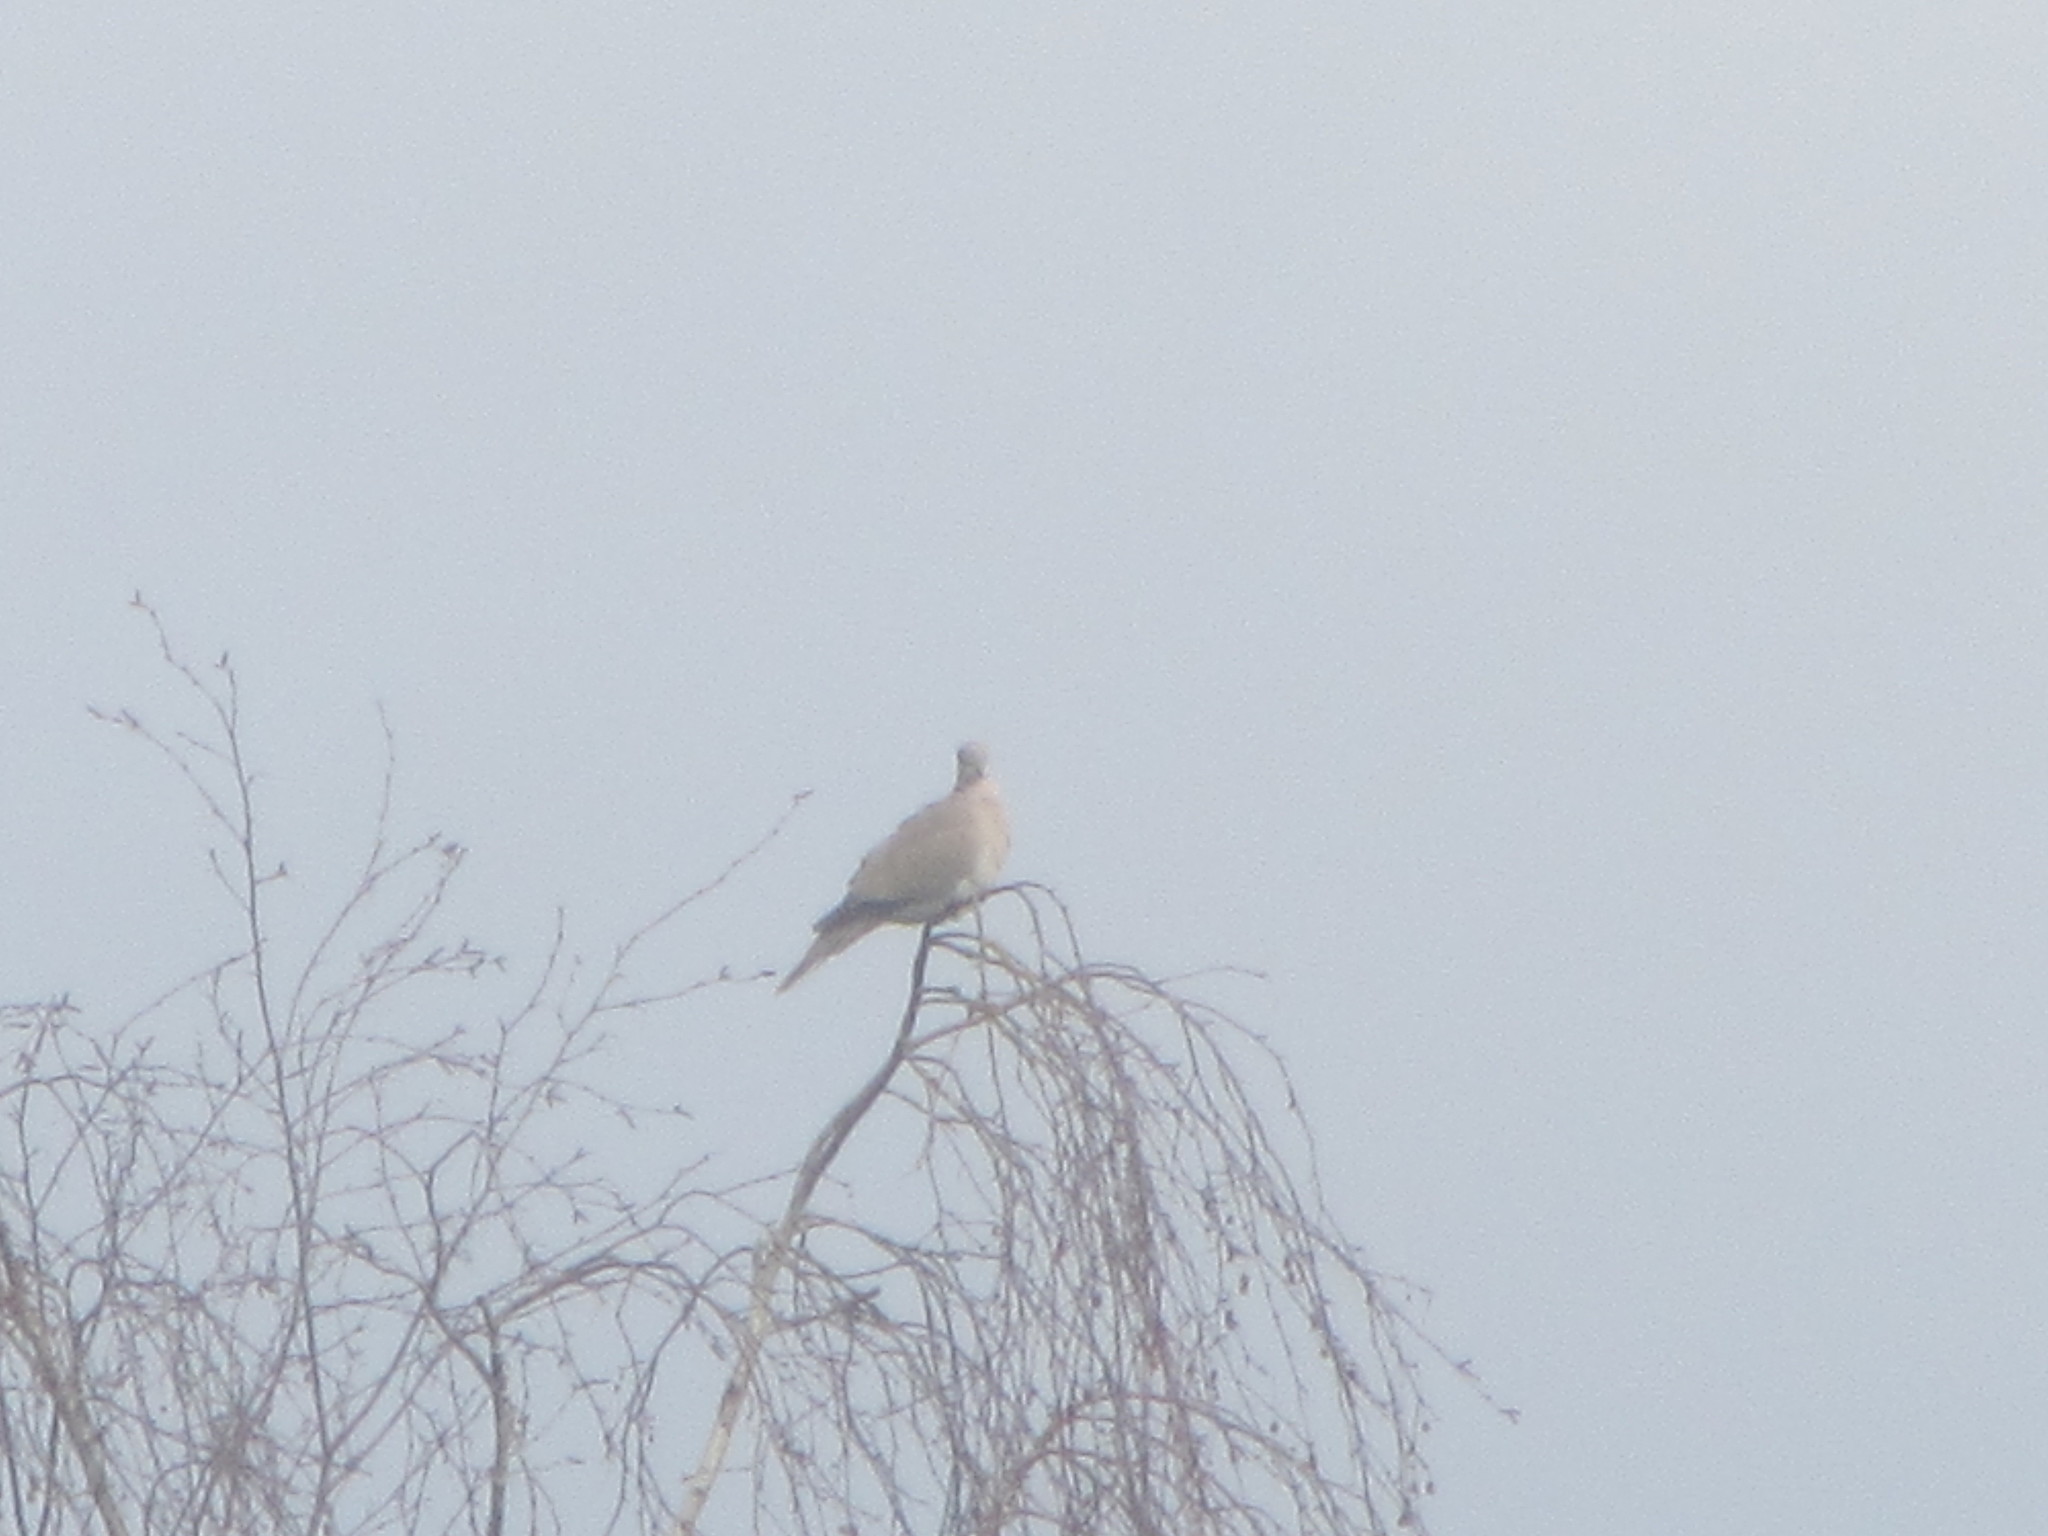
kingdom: Animalia
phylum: Chordata
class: Aves
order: Columbiformes
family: Columbidae
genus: Streptopelia
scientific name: Streptopelia decaocto
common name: Eurasian collared dove
